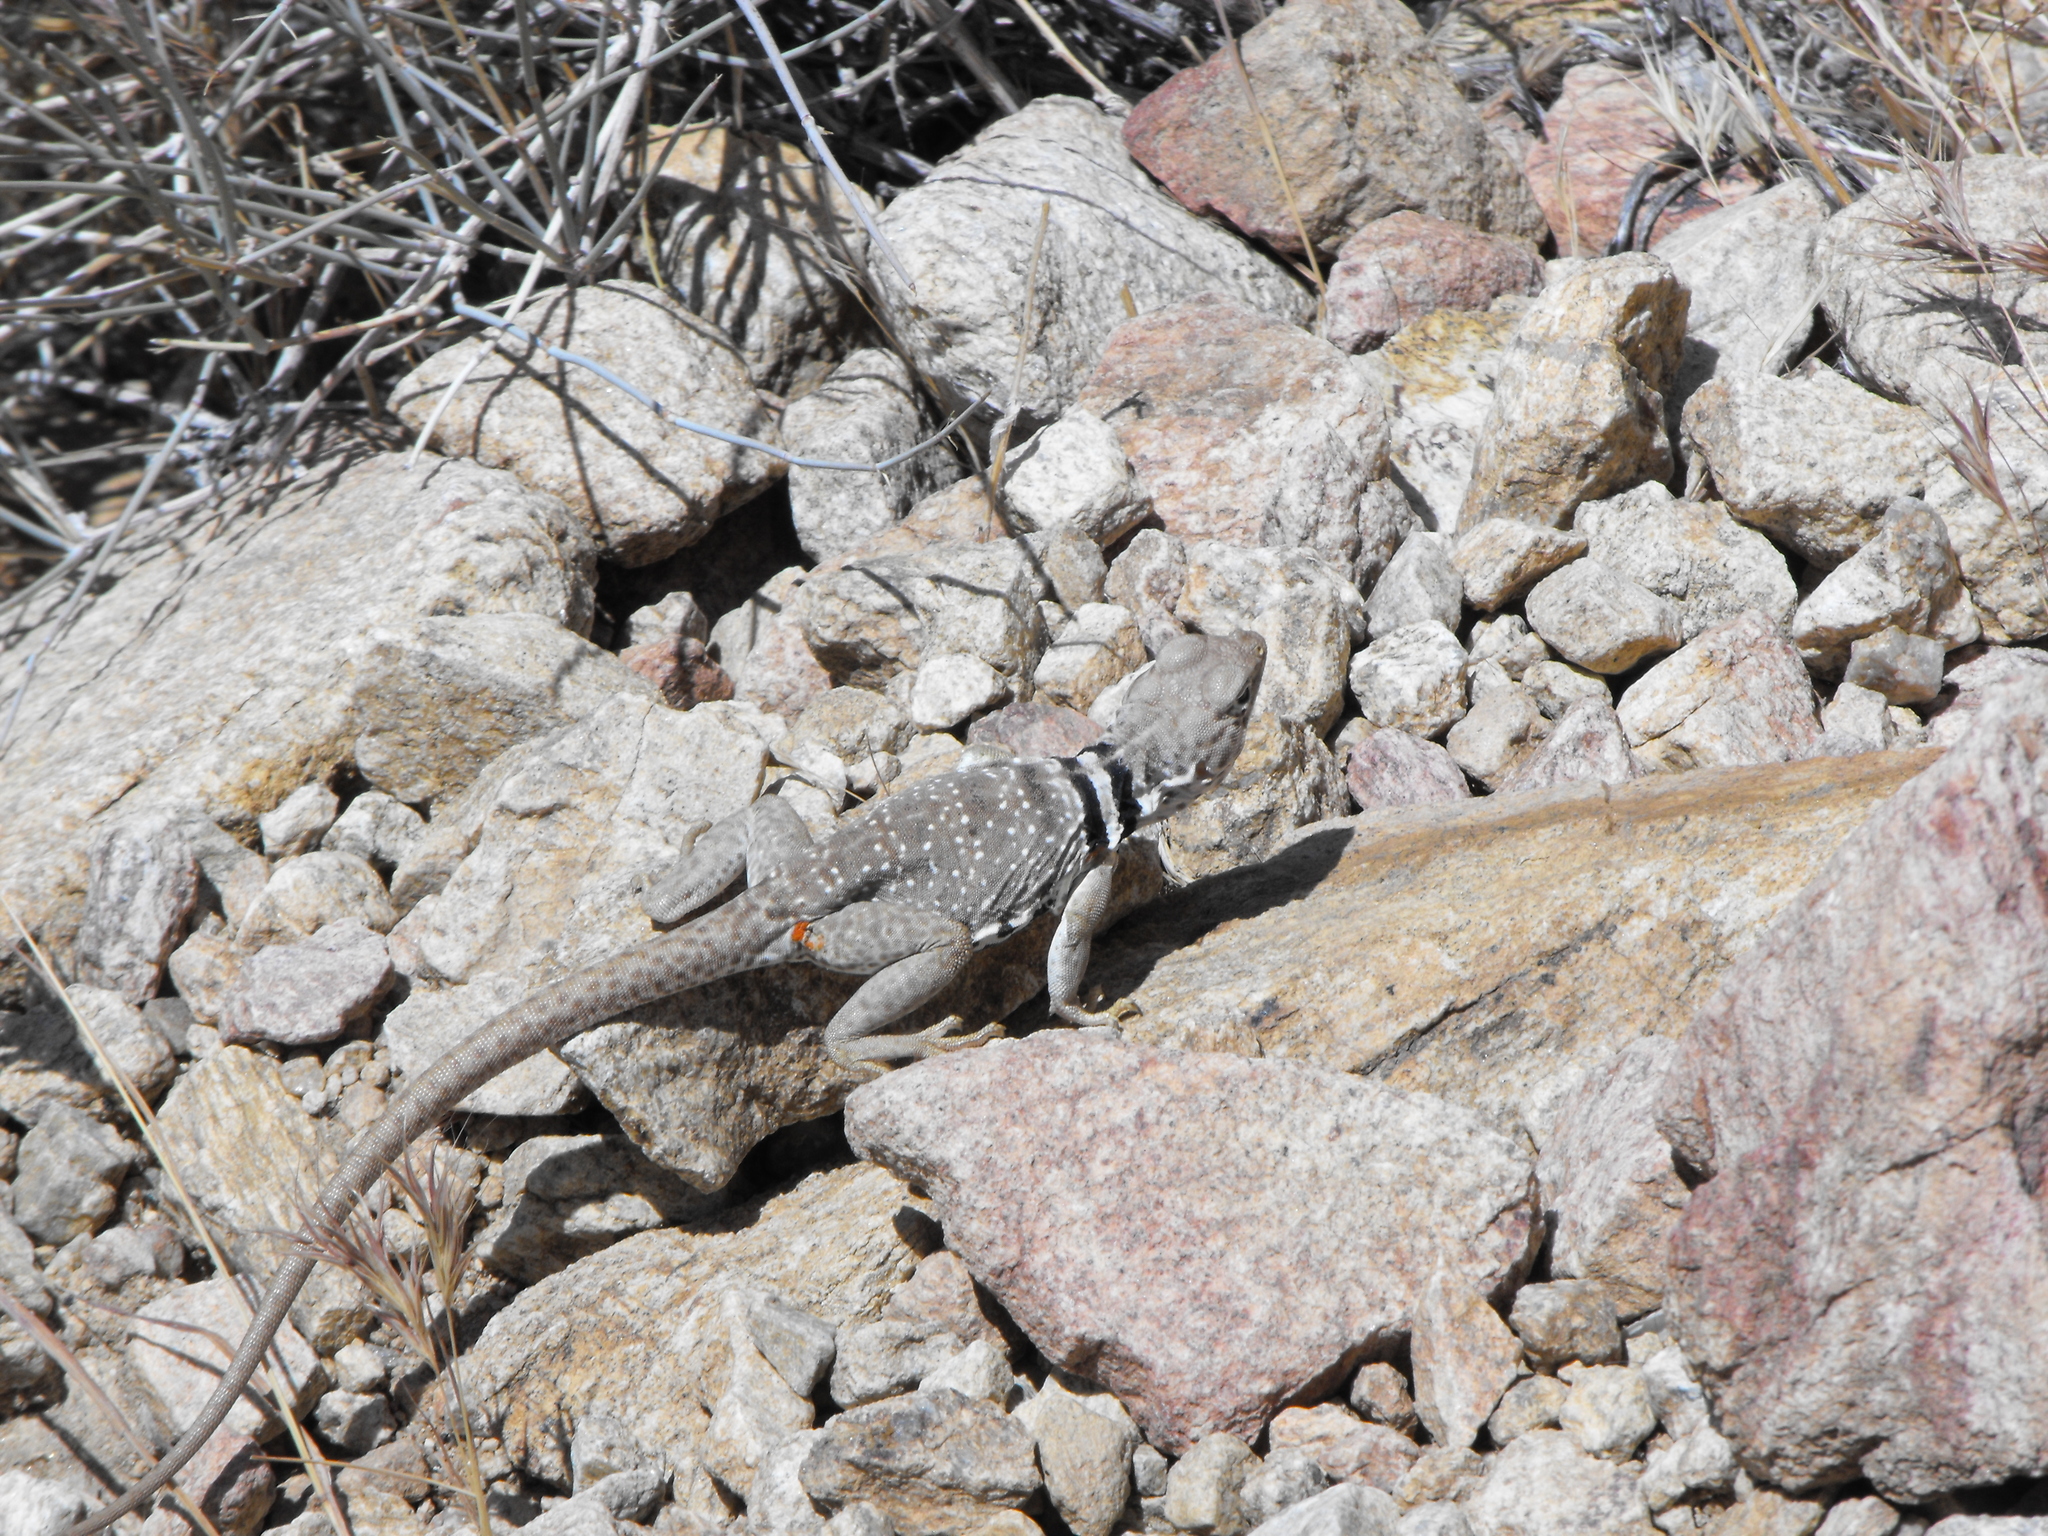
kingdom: Animalia
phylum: Chordata
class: Squamata
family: Crotaphytidae
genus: Crotaphytus
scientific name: Crotaphytus bicinctores
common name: Mojave black-collared lizard
